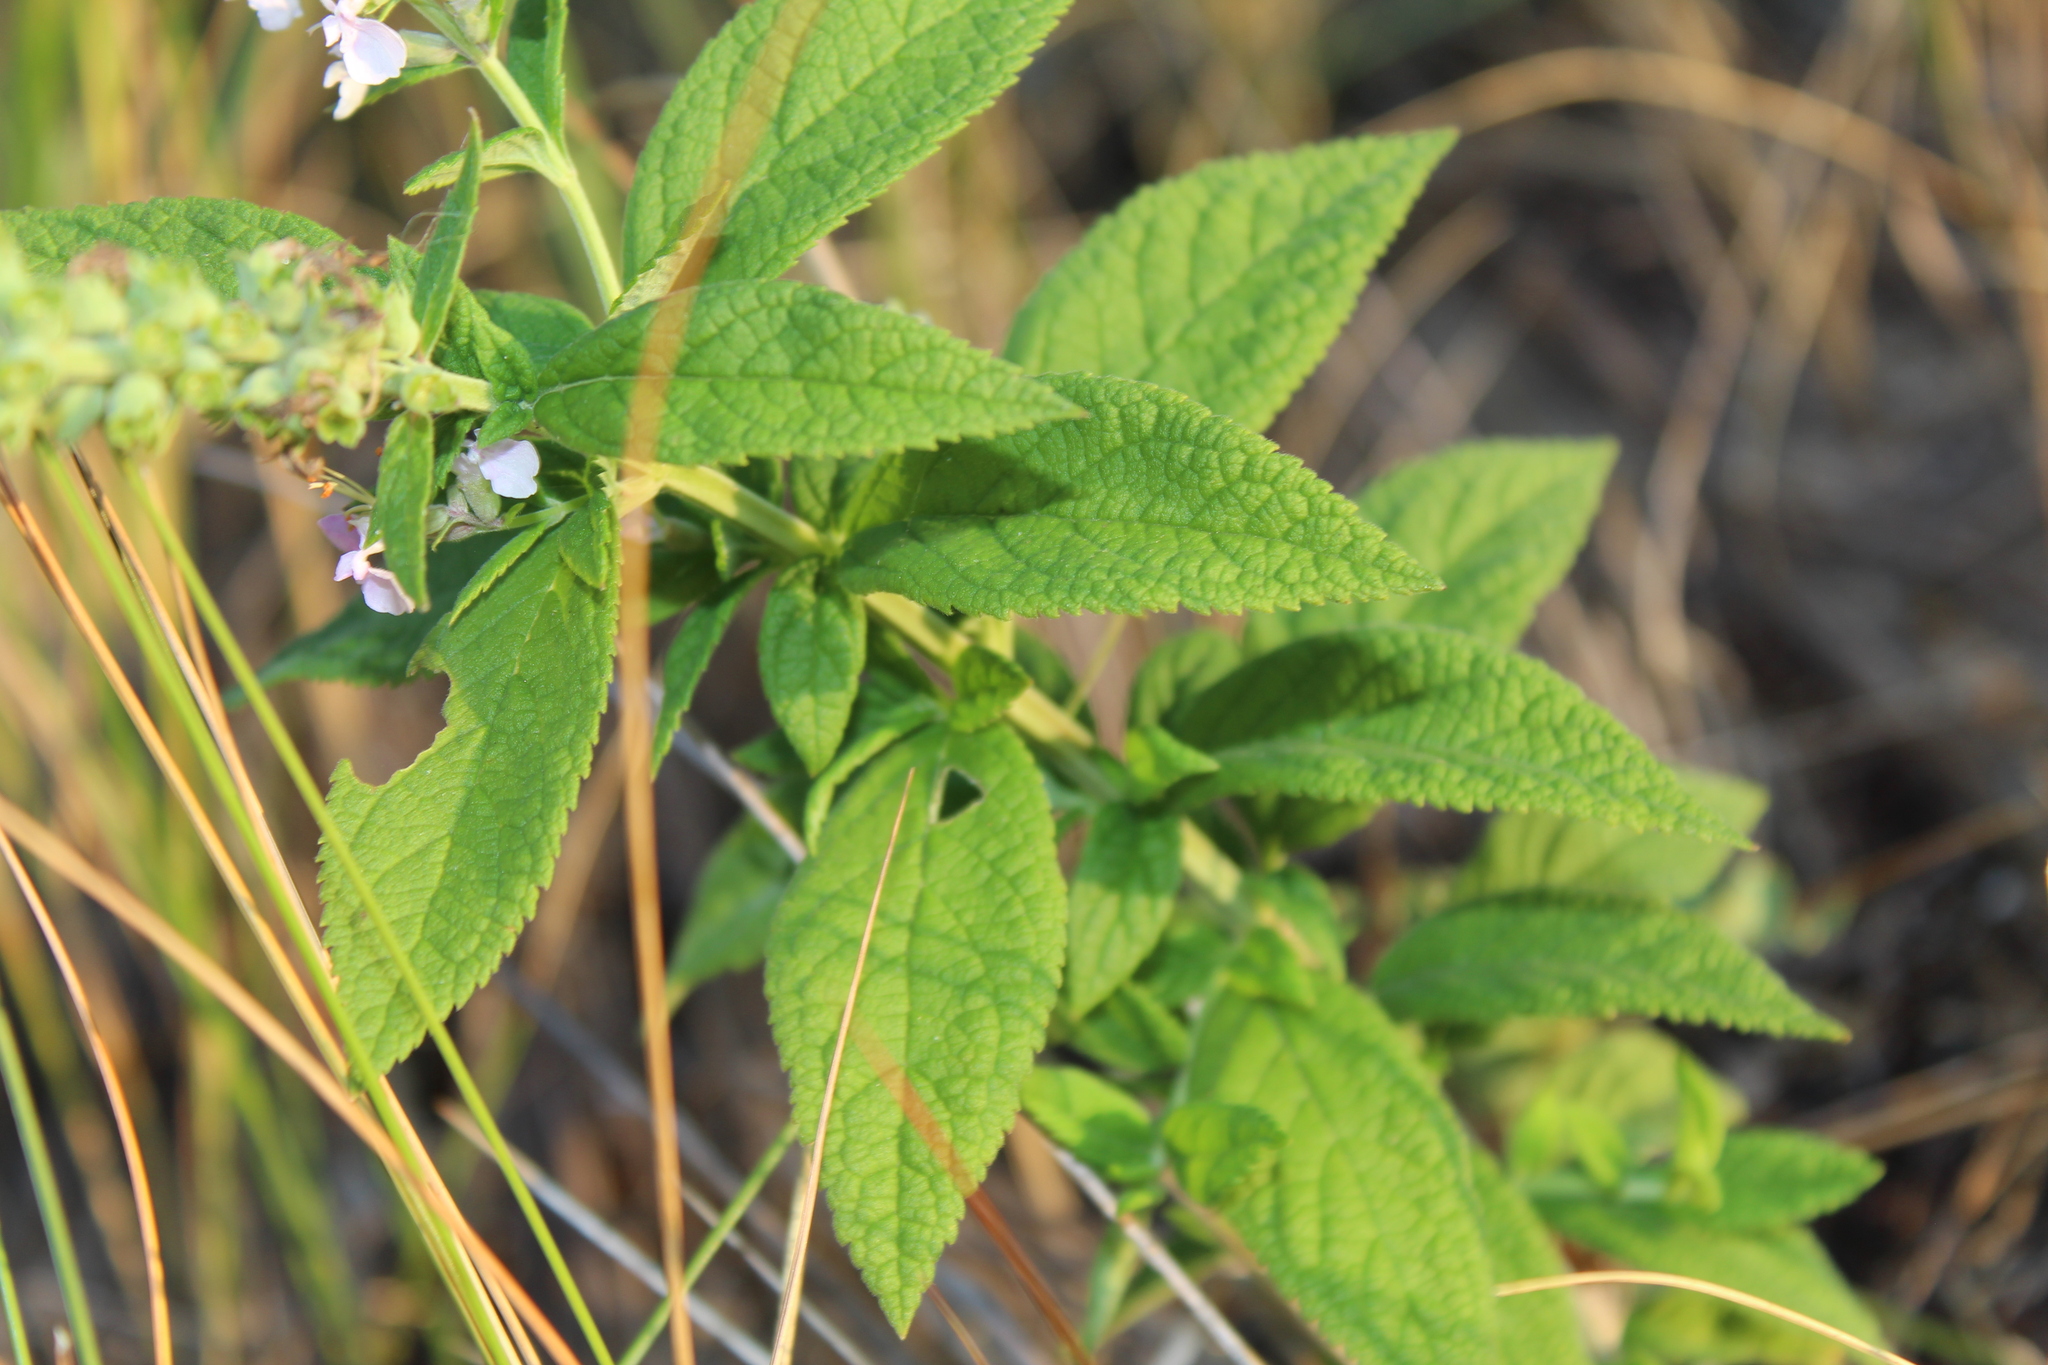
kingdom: Plantae
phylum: Tracheophyta
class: Magnoliopsida
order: Lamiales
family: Lamiaceae
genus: Teucrium
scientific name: Teucrium canadense
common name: American germander
